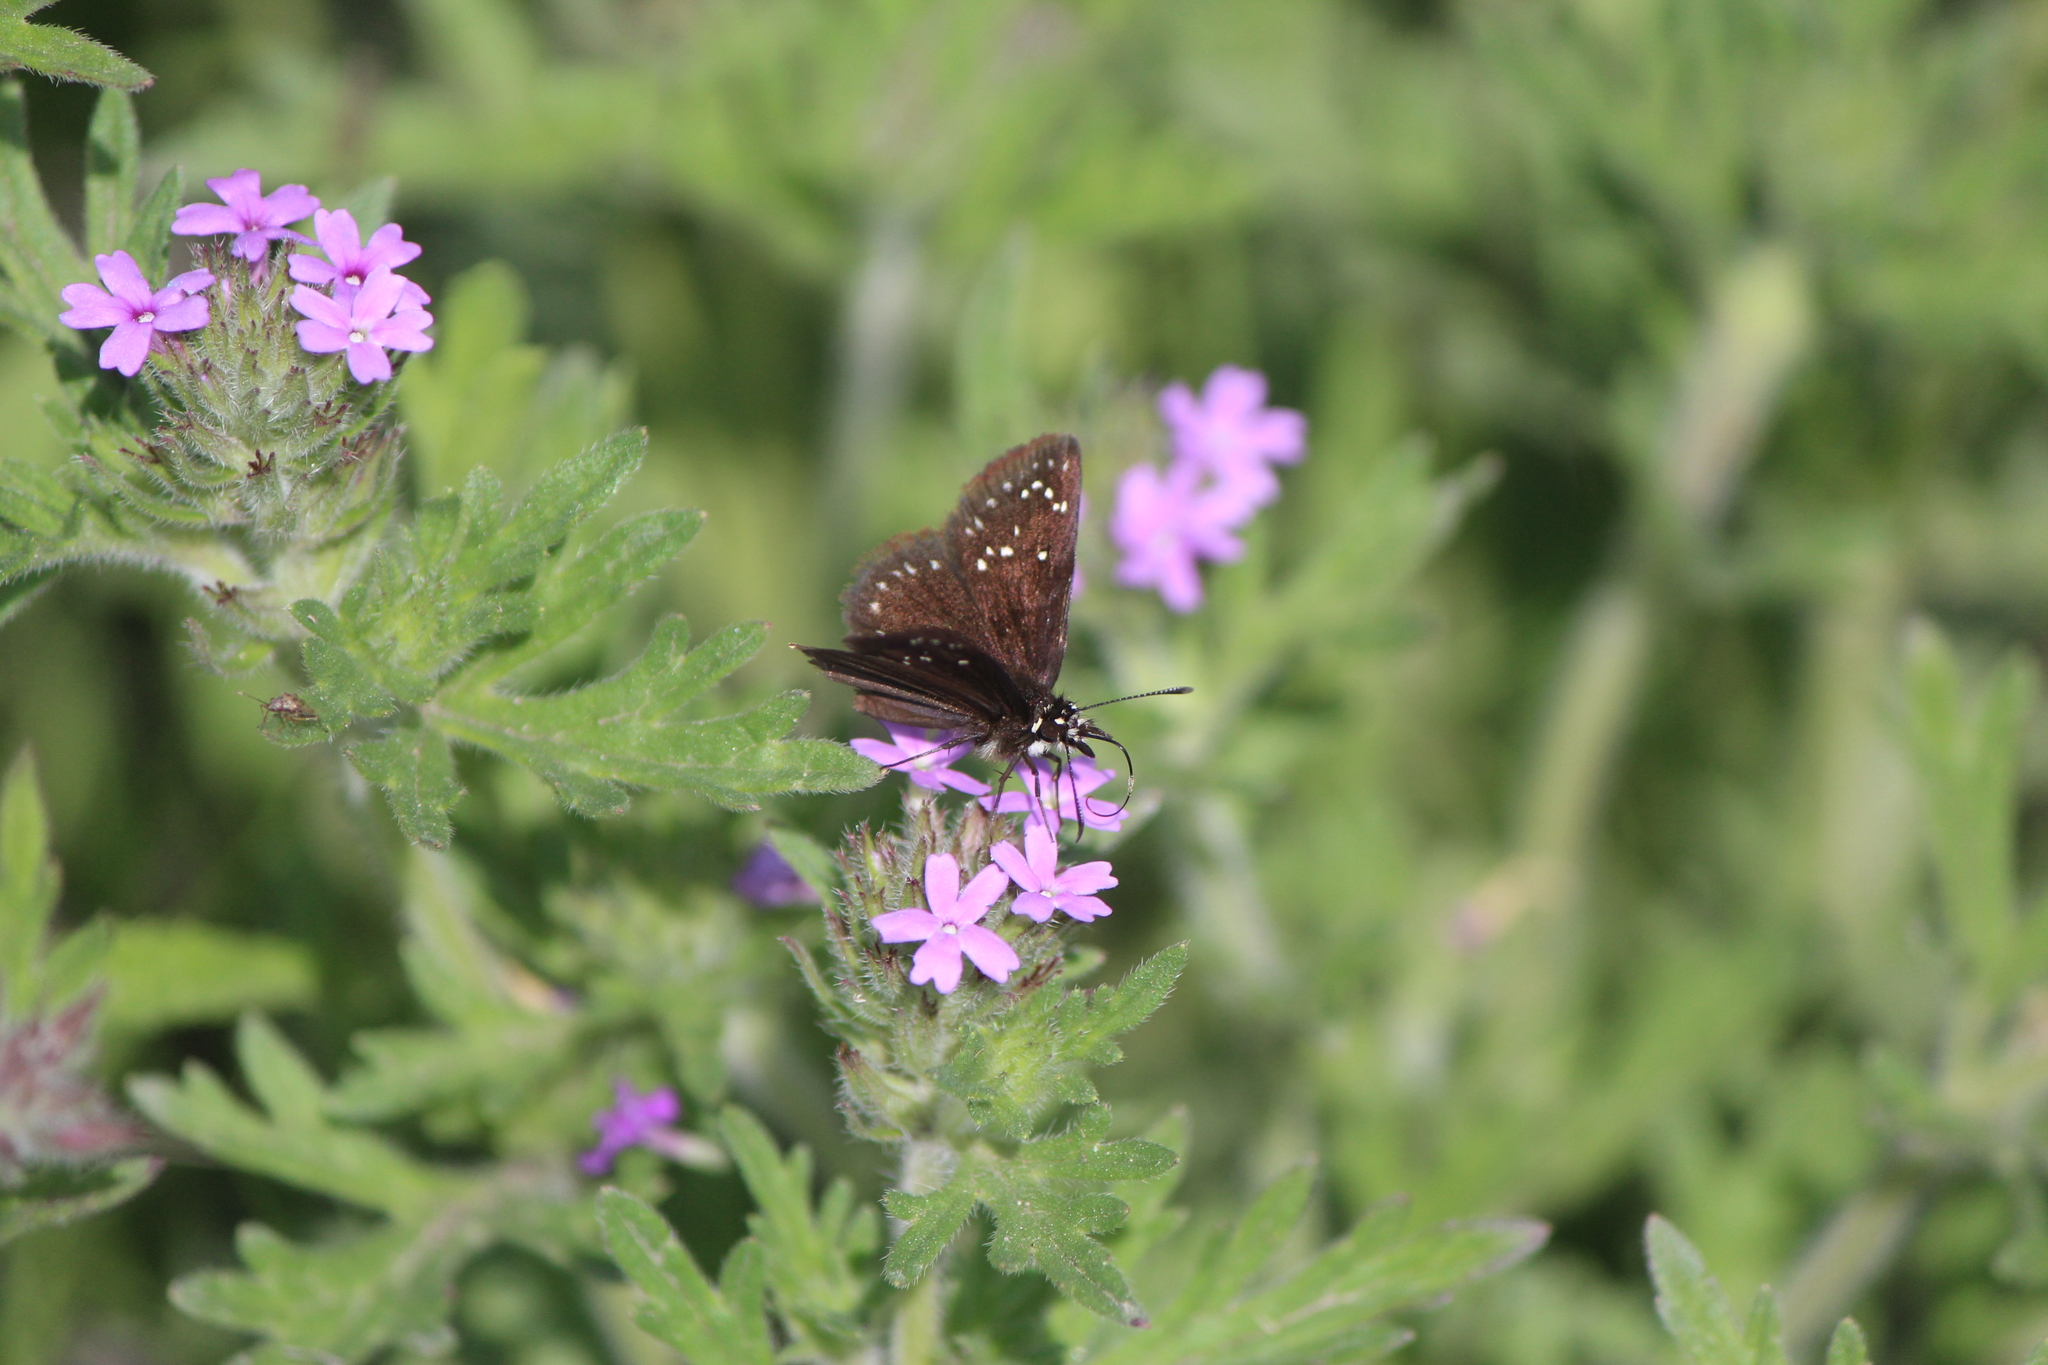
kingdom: Animalia
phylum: Arthropoda
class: Insecta
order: Lepidoptera
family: Hesperiidae
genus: Pholisora
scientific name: Pholisora catullus
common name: Common sootywing
